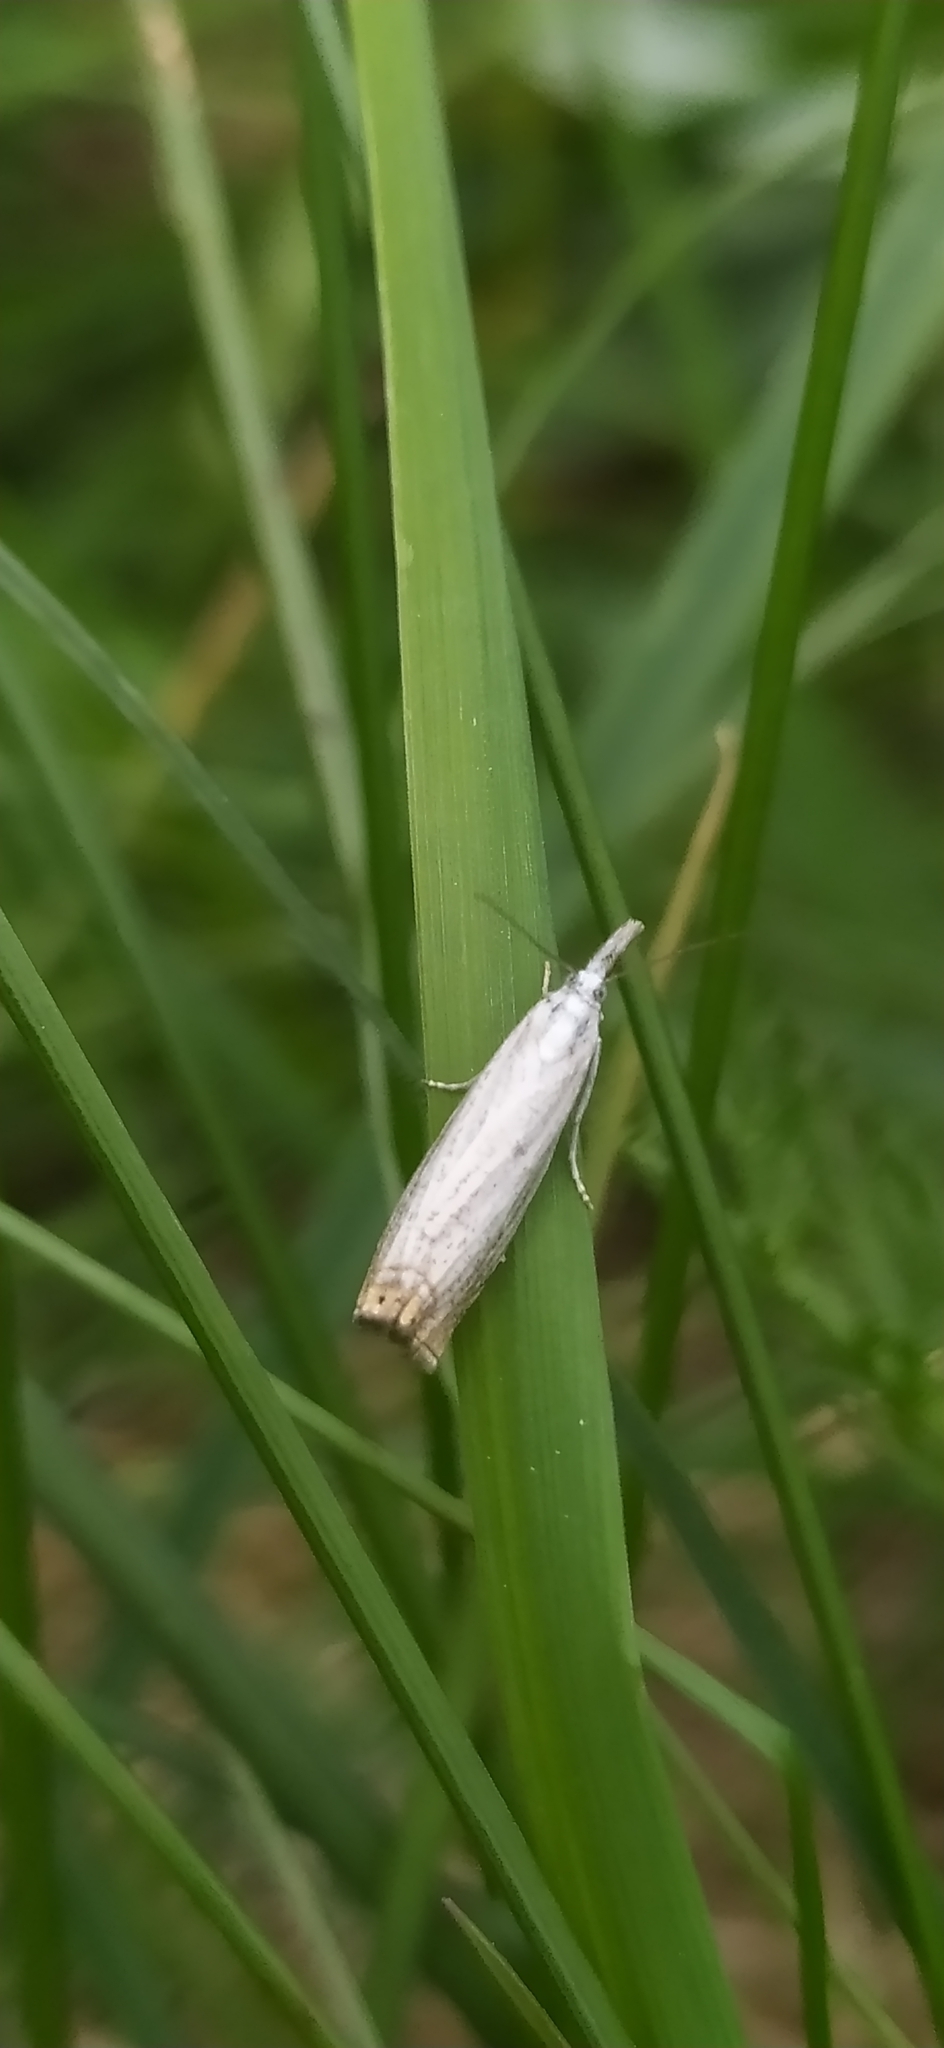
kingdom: Animalia
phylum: Arthropoda
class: Insecta
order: Lepidoptera
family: Crambidae
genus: Crambus
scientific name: Crambus nemorella
